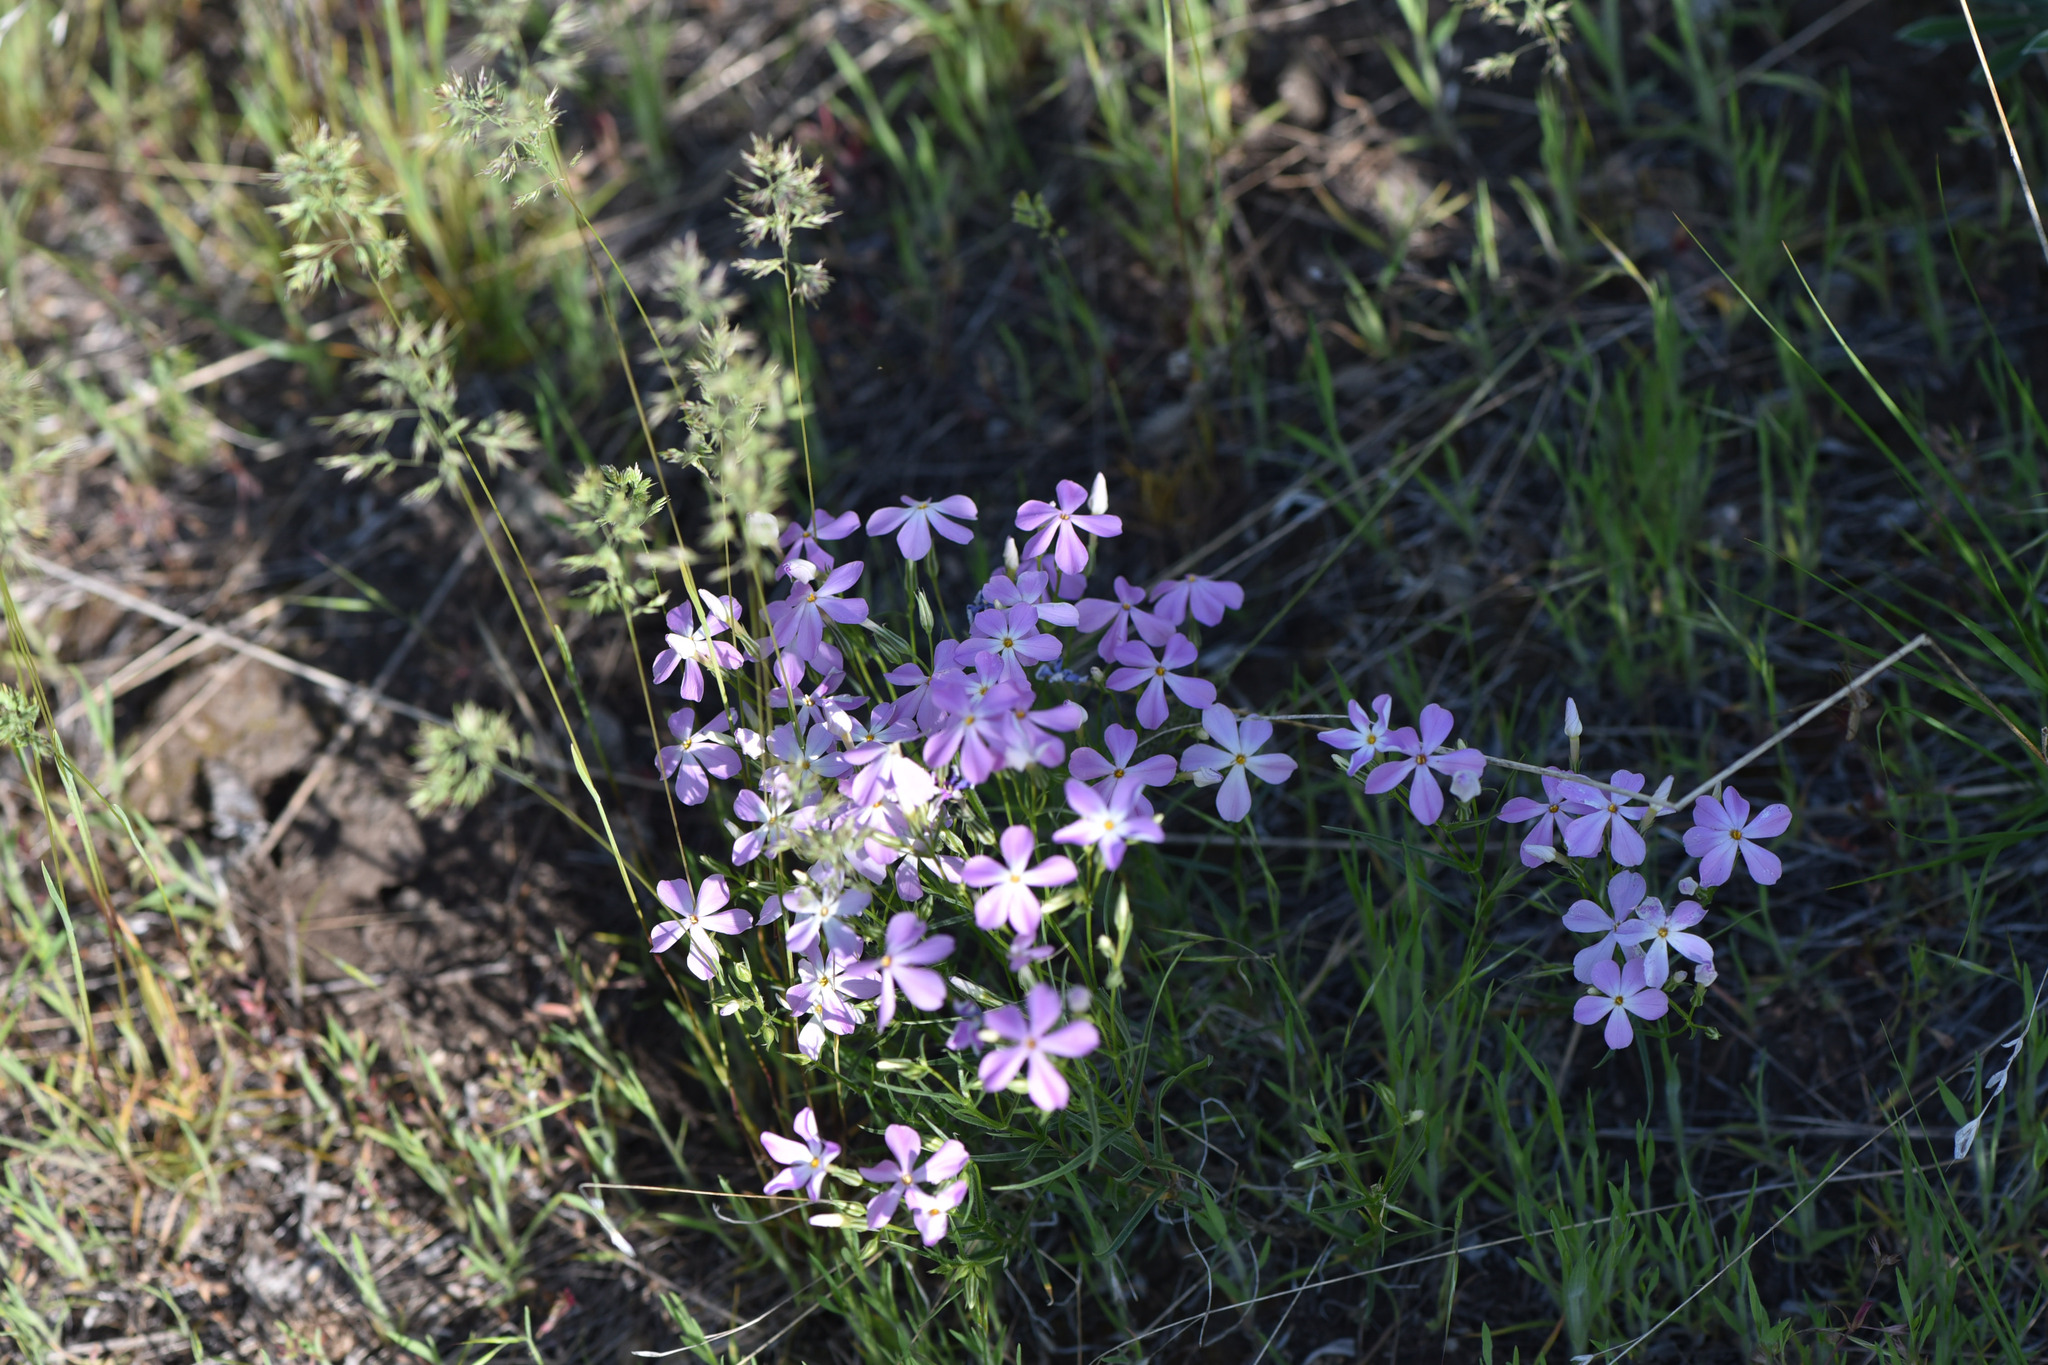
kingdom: Plantae
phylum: Tracheophyta
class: Magnoliopsida
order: Ericales
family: Polemoniaceae
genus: Phlox
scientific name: Phlox longifolia
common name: Longleaf phlox
